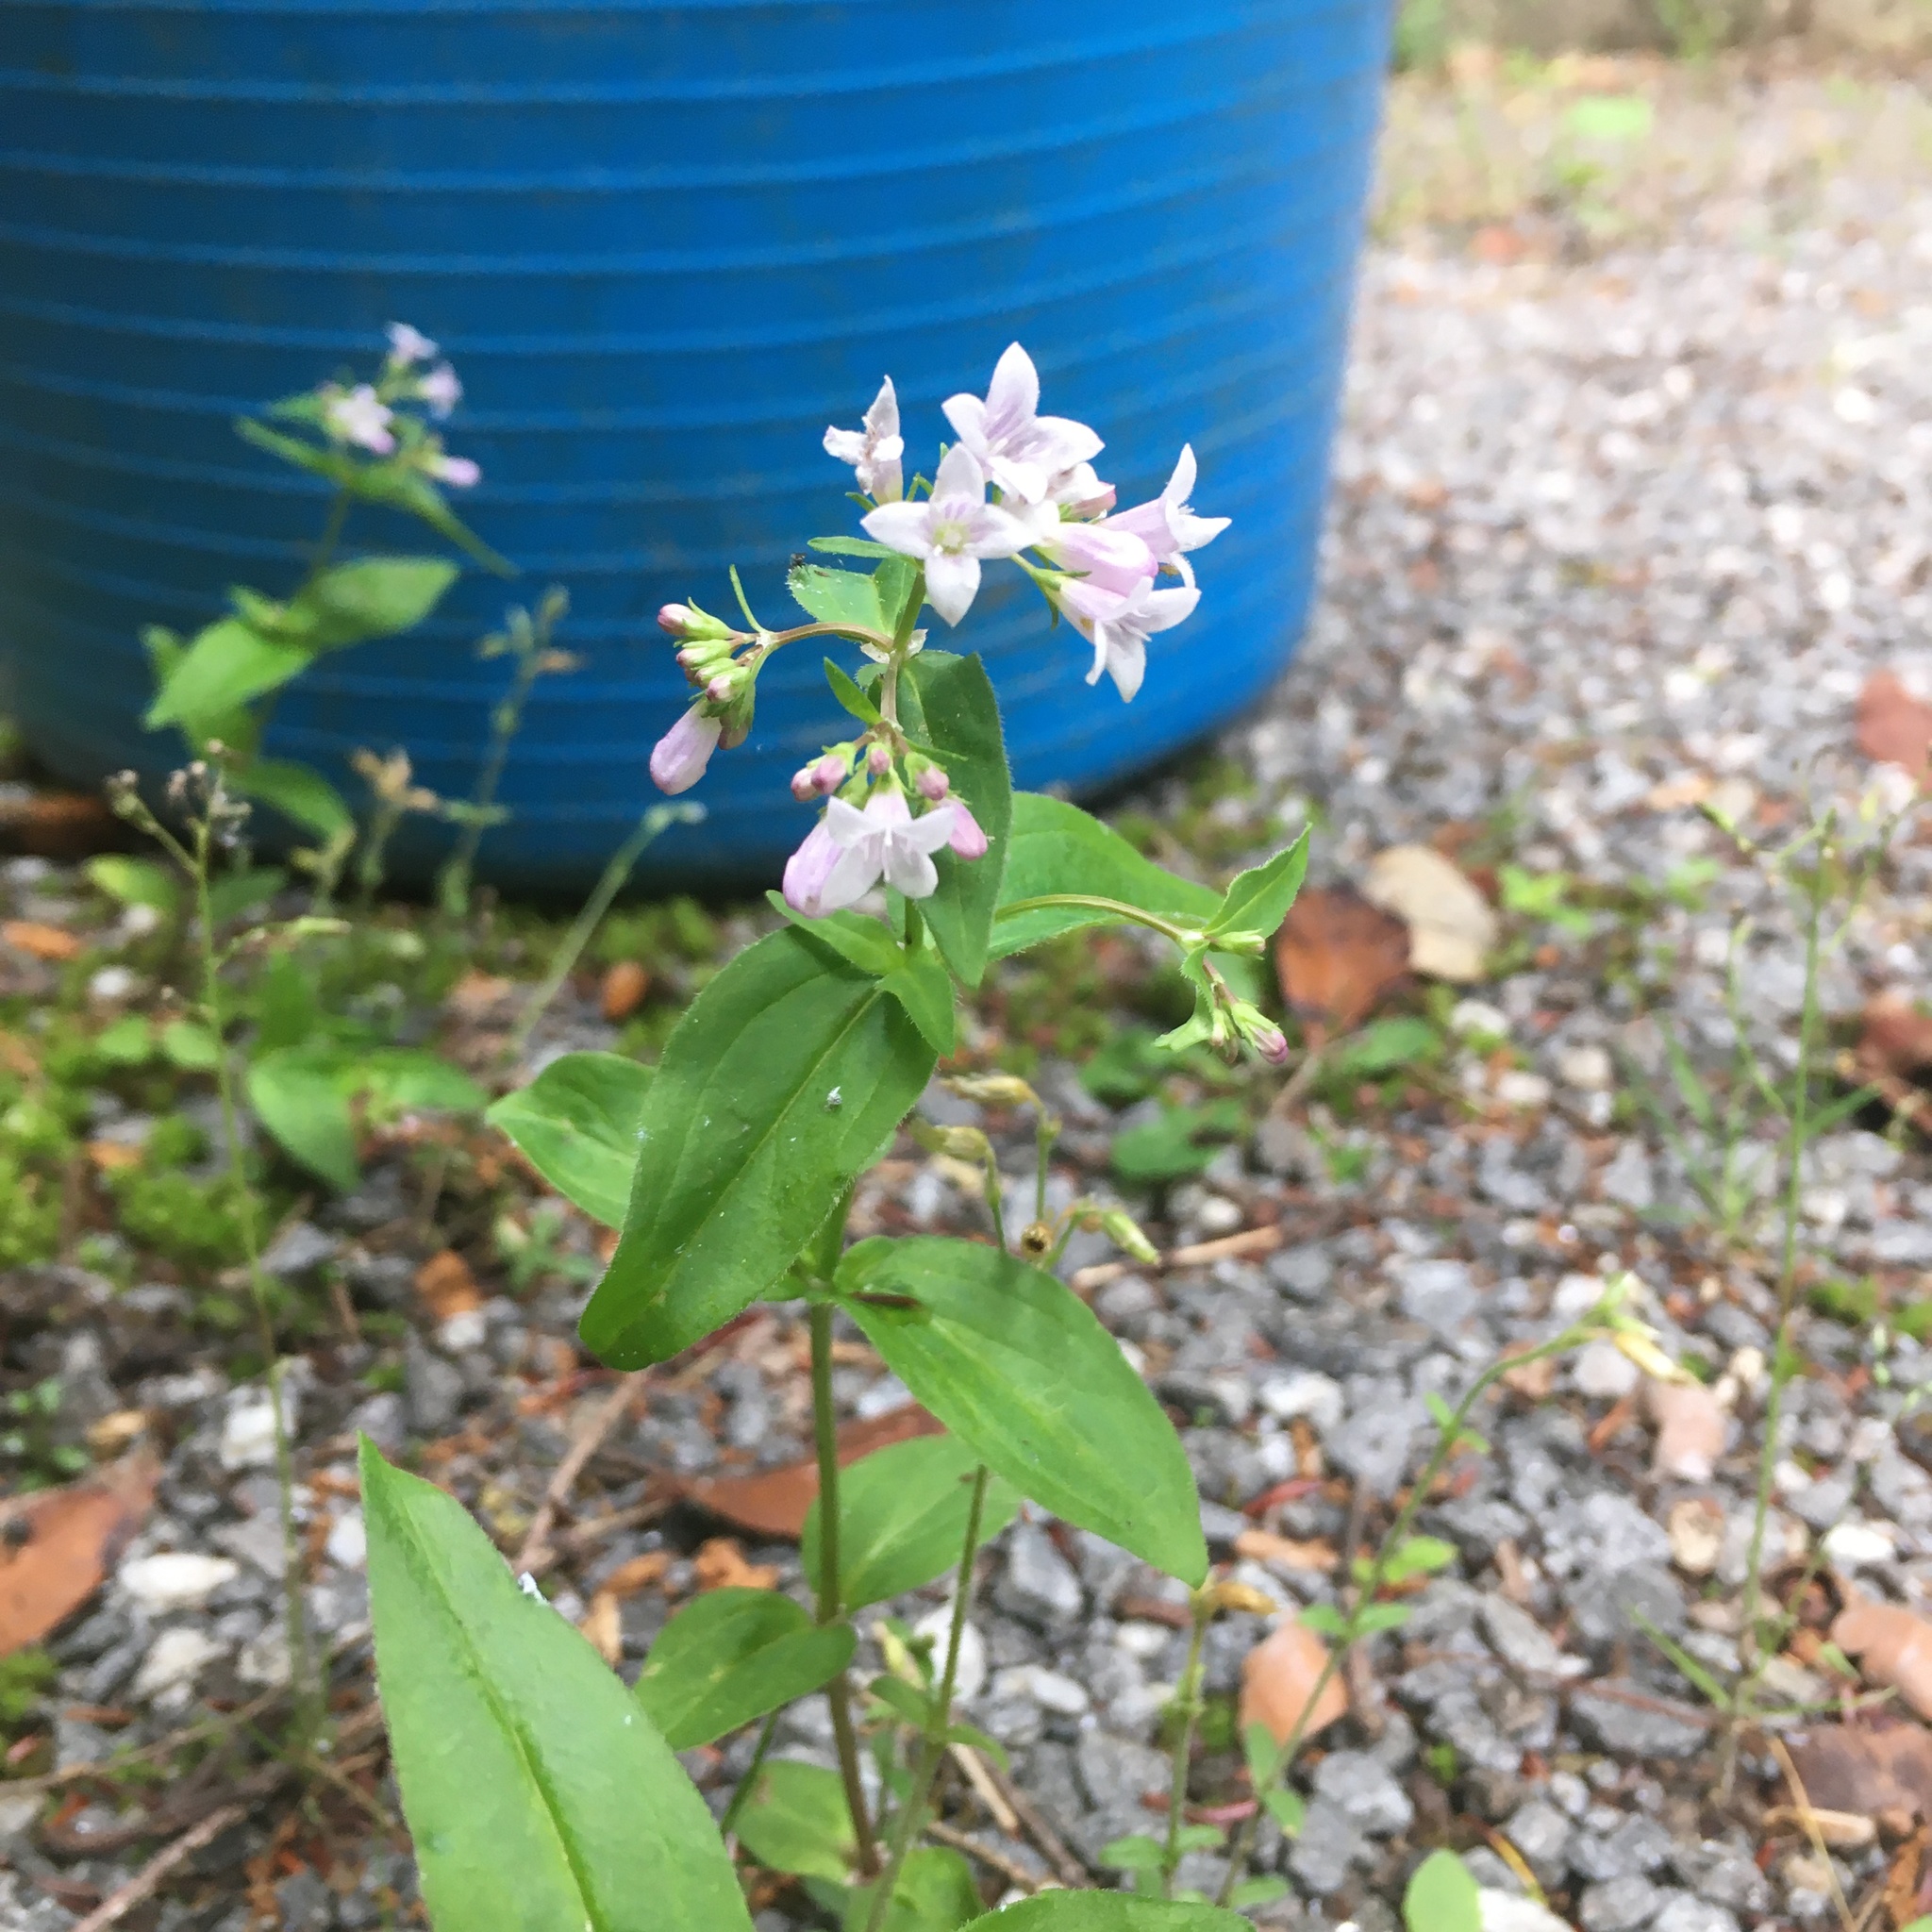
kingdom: Plantae
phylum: Tracheophyta
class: Magnoliopsida
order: Gentianales
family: Rubiaceae
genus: Houstonia
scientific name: Houstonia purpurea
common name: Summer bluet
